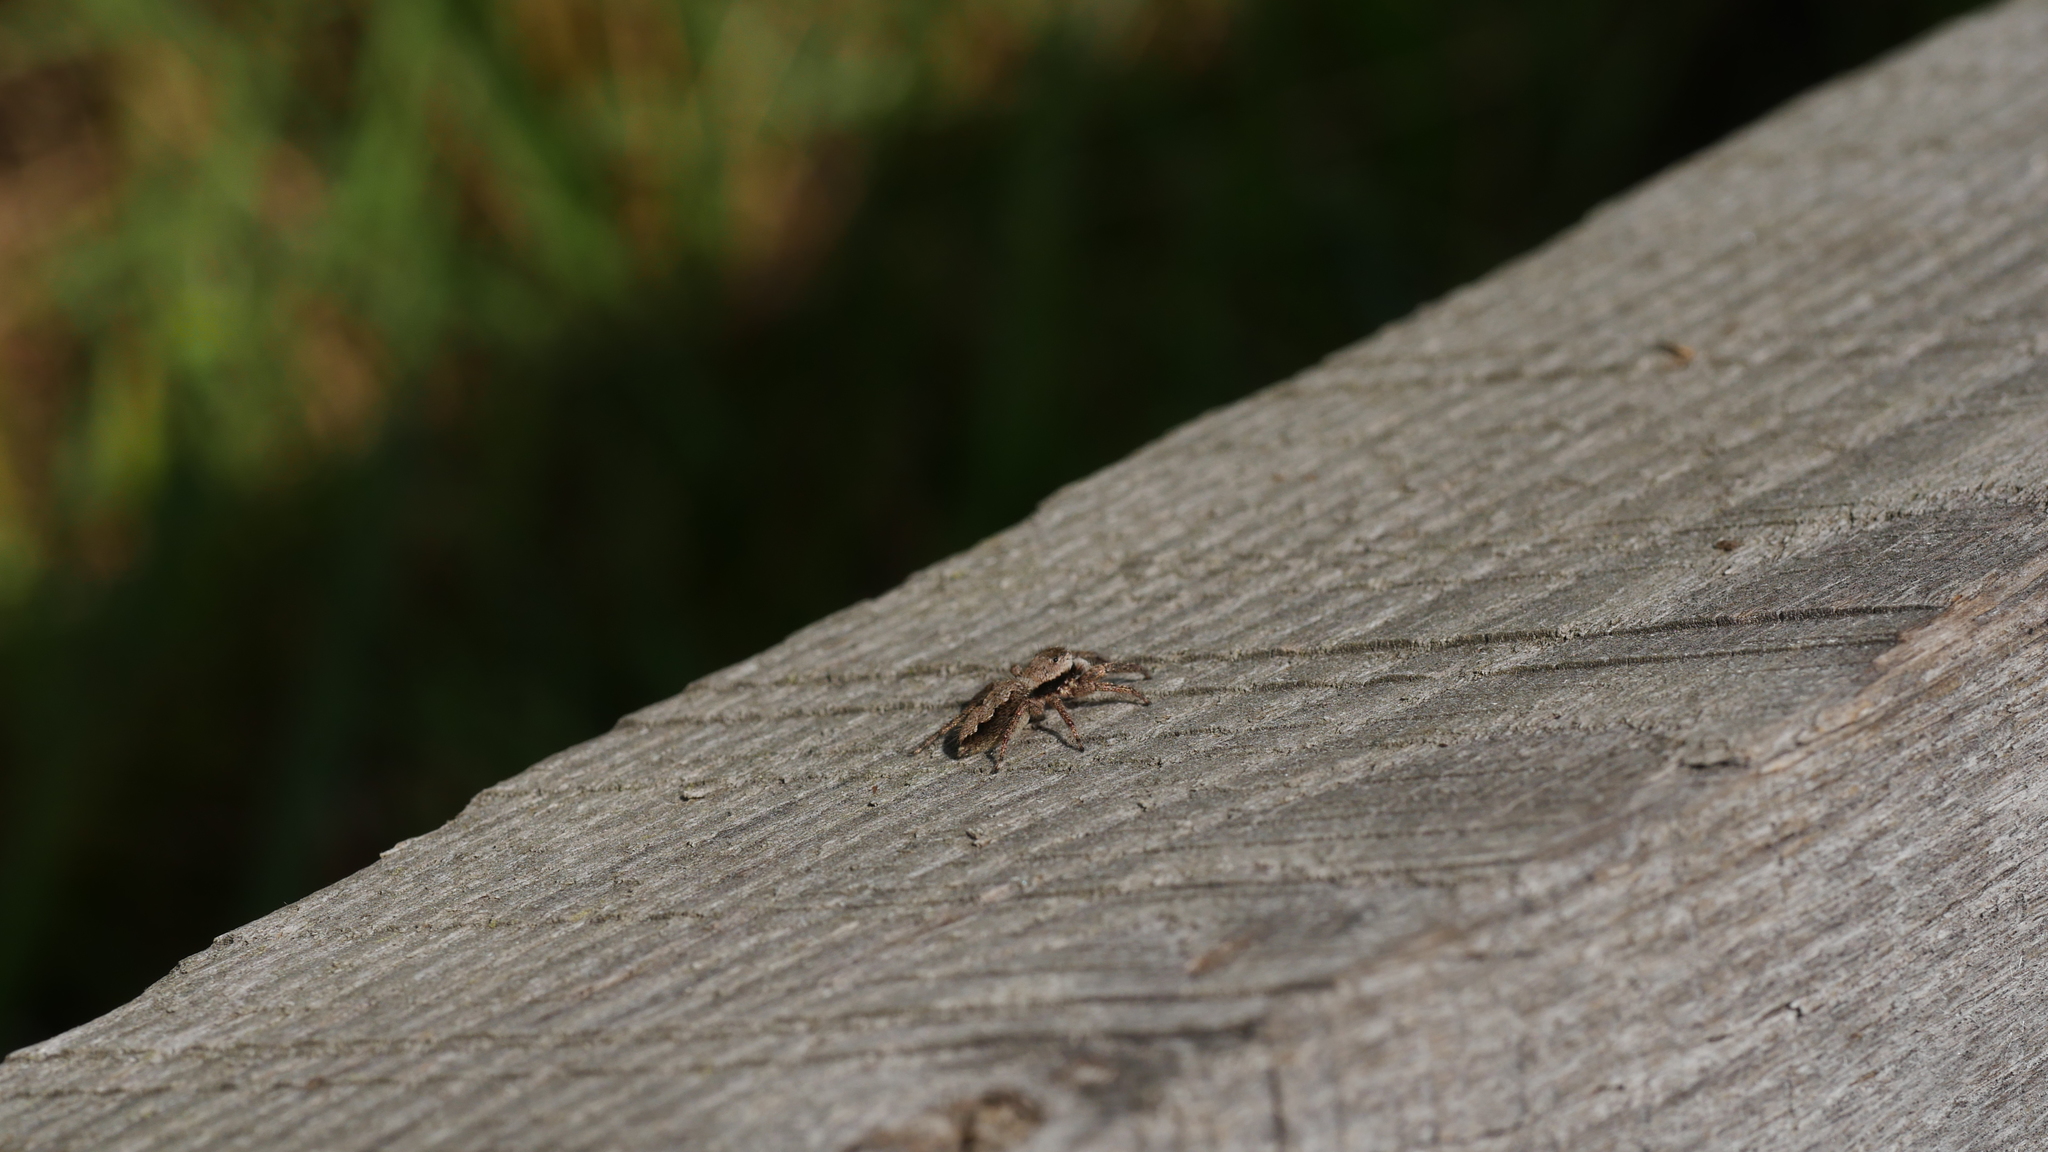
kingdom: Animalia
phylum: Arthropoda
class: Arachnida
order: Araneae
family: Salticidae
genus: Platycryptus
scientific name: Platycryptus undatus
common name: Tan jumping spider
